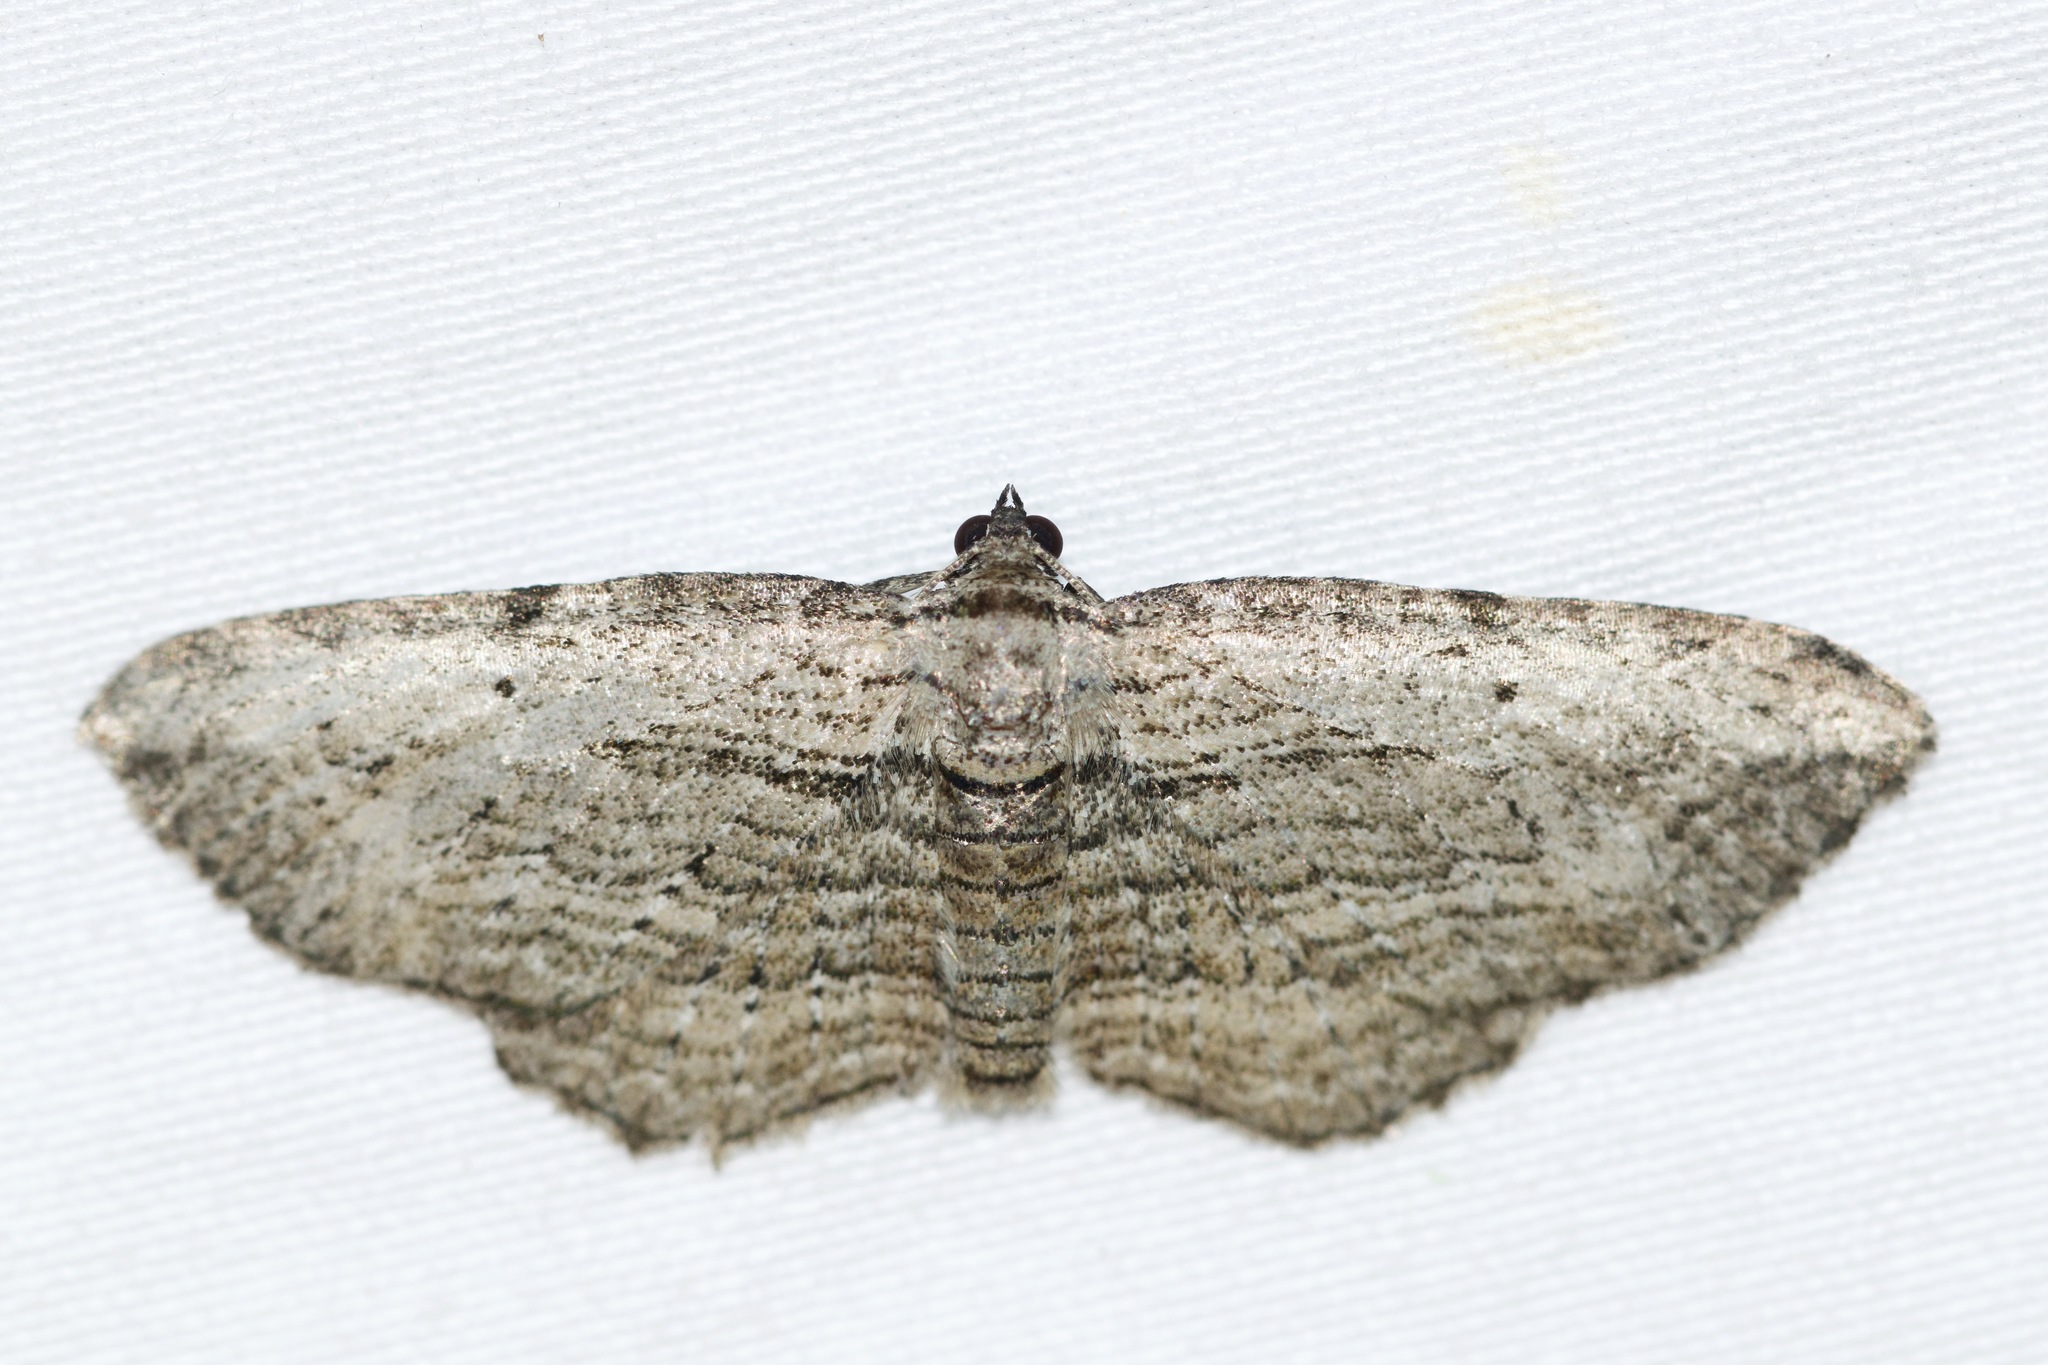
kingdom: Animalia
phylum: Arthropoda
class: Insecta
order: Lepidoptera
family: Geometridae
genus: Horisme
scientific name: Horisme intestinata
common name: Brown bark carpet
